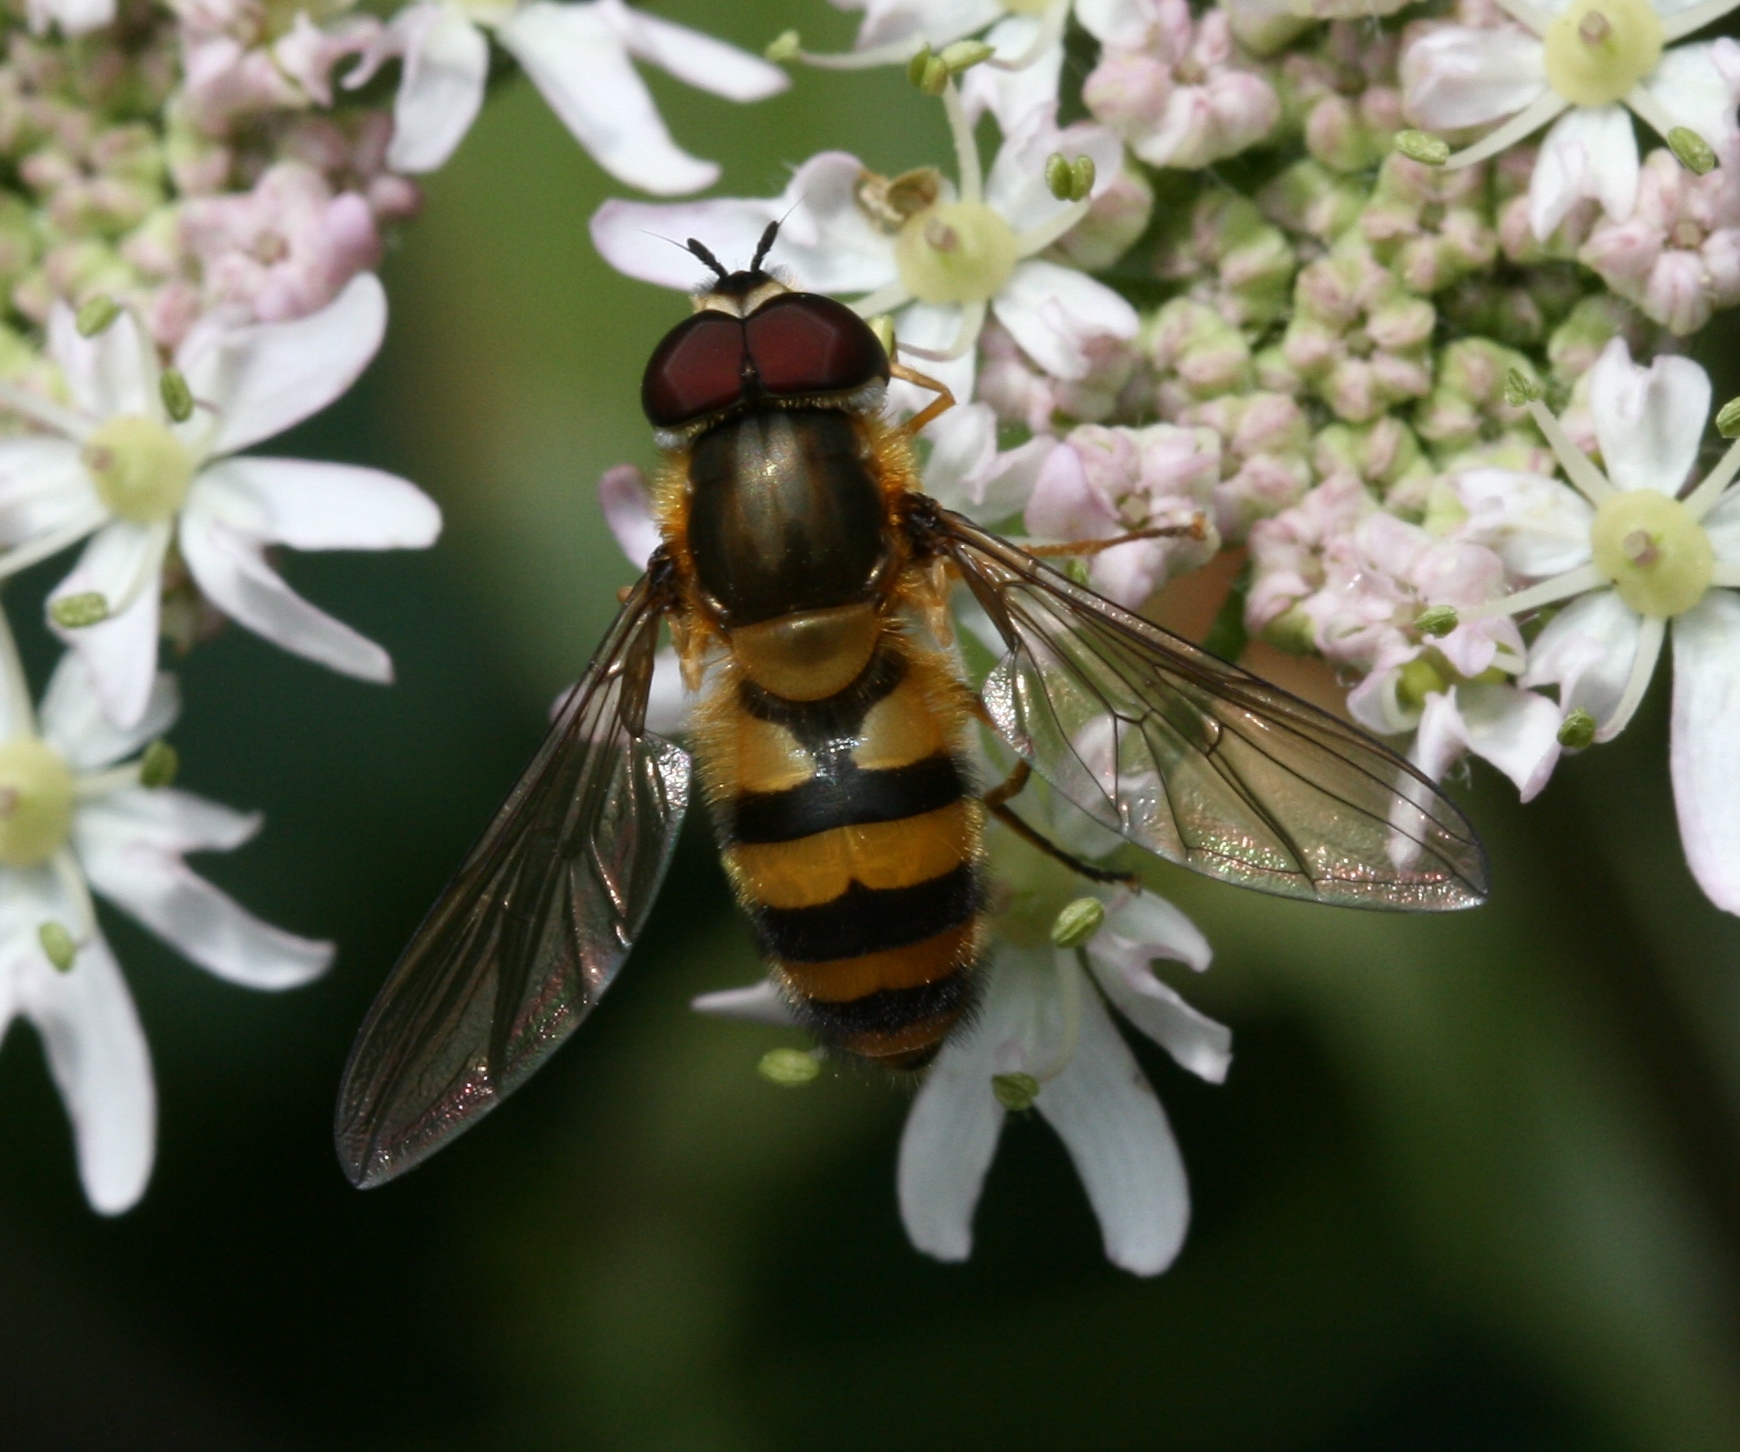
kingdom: Animalia
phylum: Arthropoda
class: Insecta
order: Diptera
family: Syrphidae
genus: Epistrophe
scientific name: Epistrophe grossulariae
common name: Black-horned smoothtail
